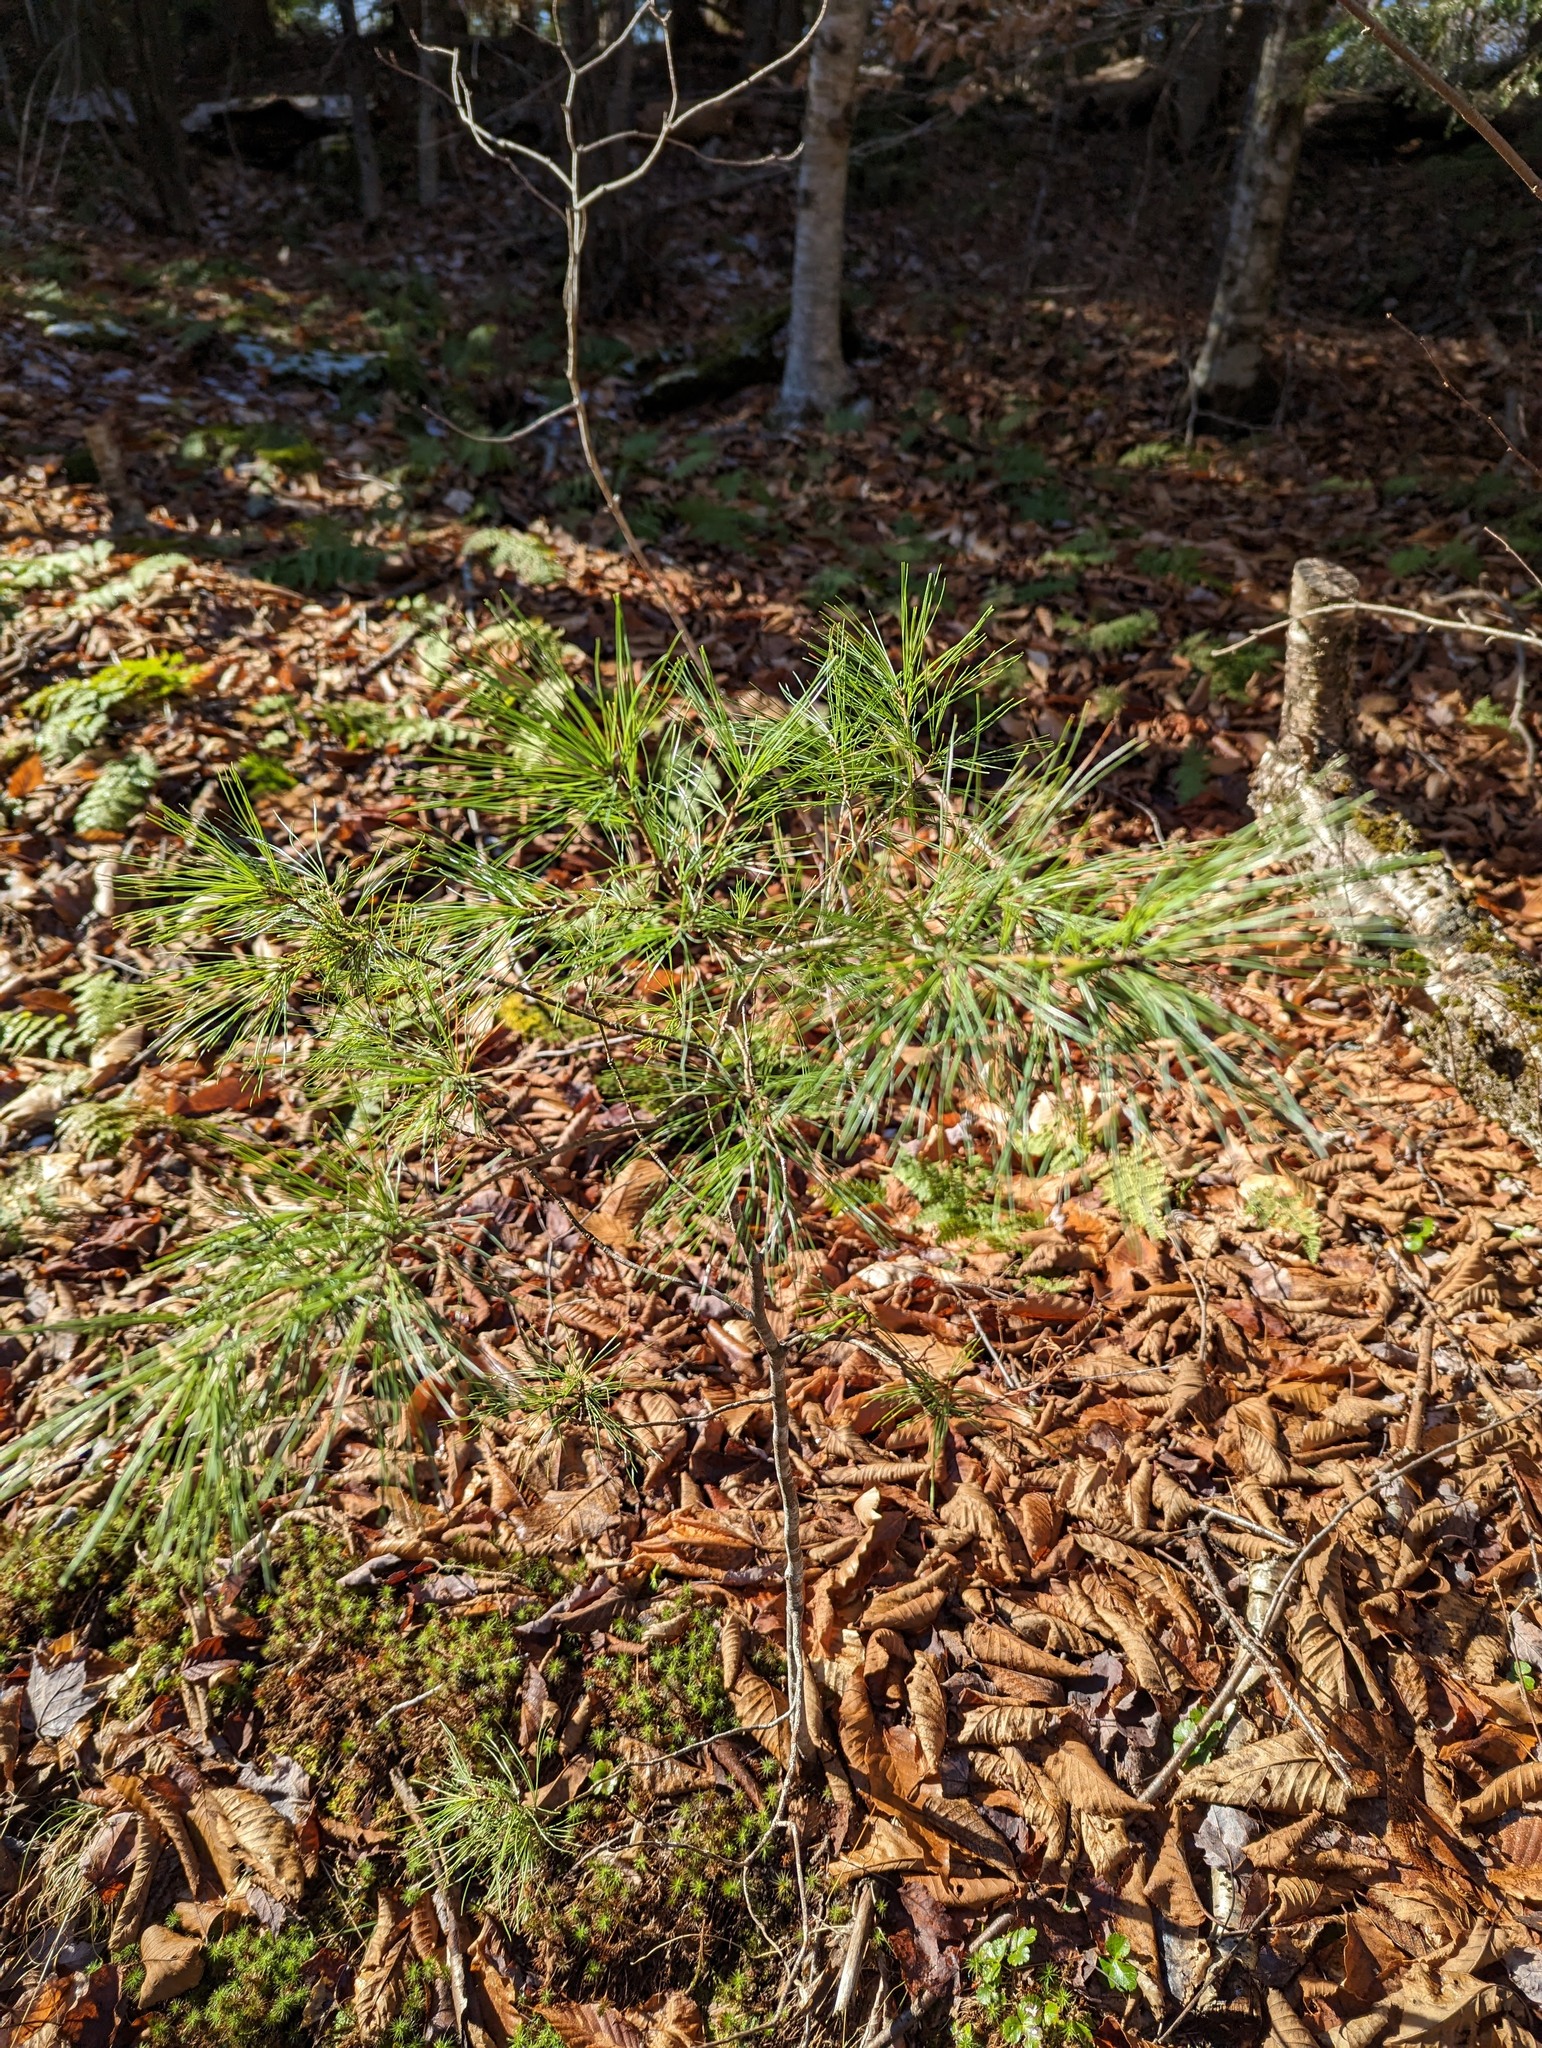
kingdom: Plantae
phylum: Tracheophyta
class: Pinopsida
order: Pinales
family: Pinaceae
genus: Pinus
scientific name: Pinus strobus
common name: Weymouth pine
